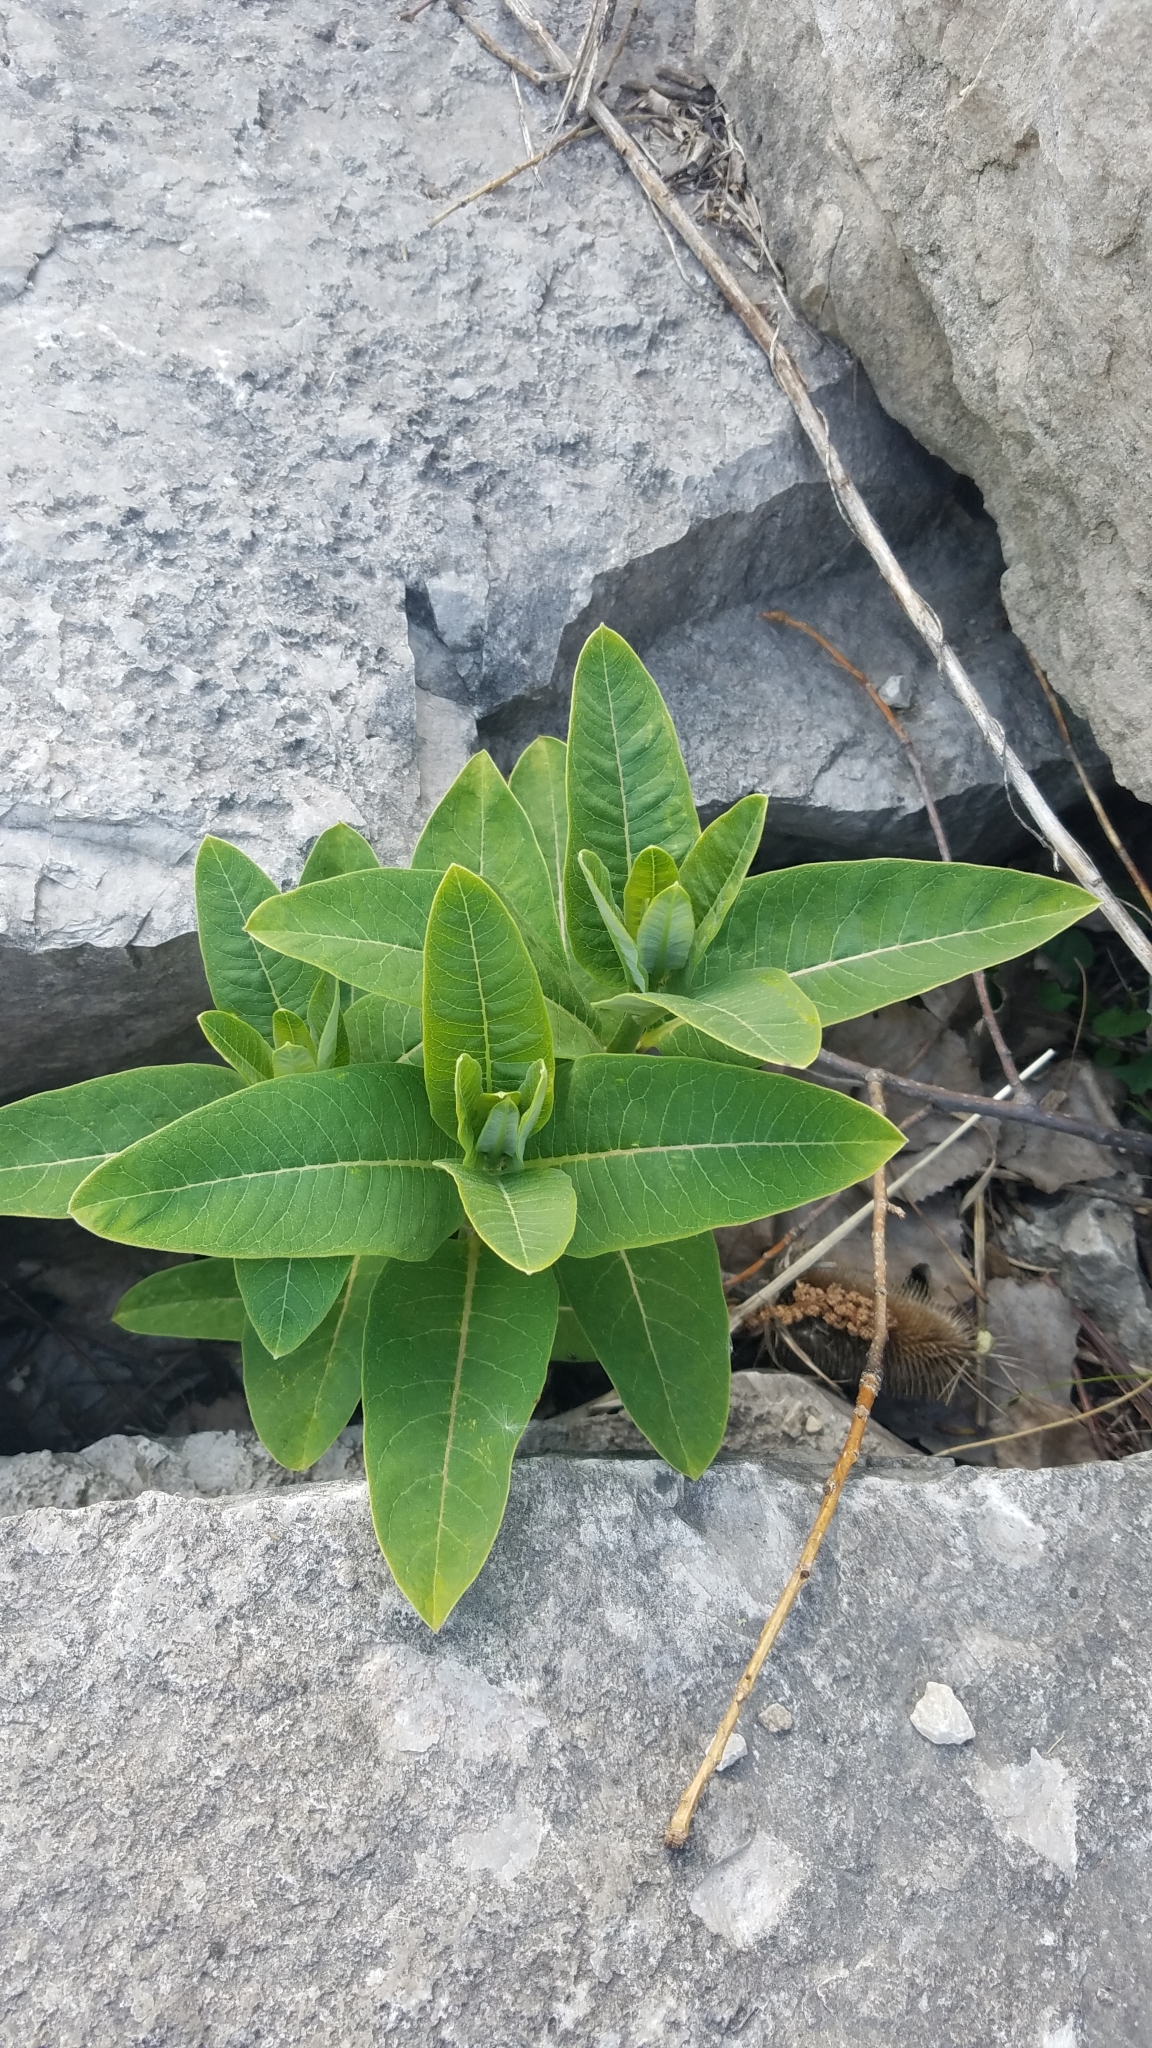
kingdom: Plantae
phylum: Tracheophyta
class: Magnoliopsida
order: Gentianales
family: Apocynaceae
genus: Asclepias
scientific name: Asclepias syriaca
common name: Common milkweed
